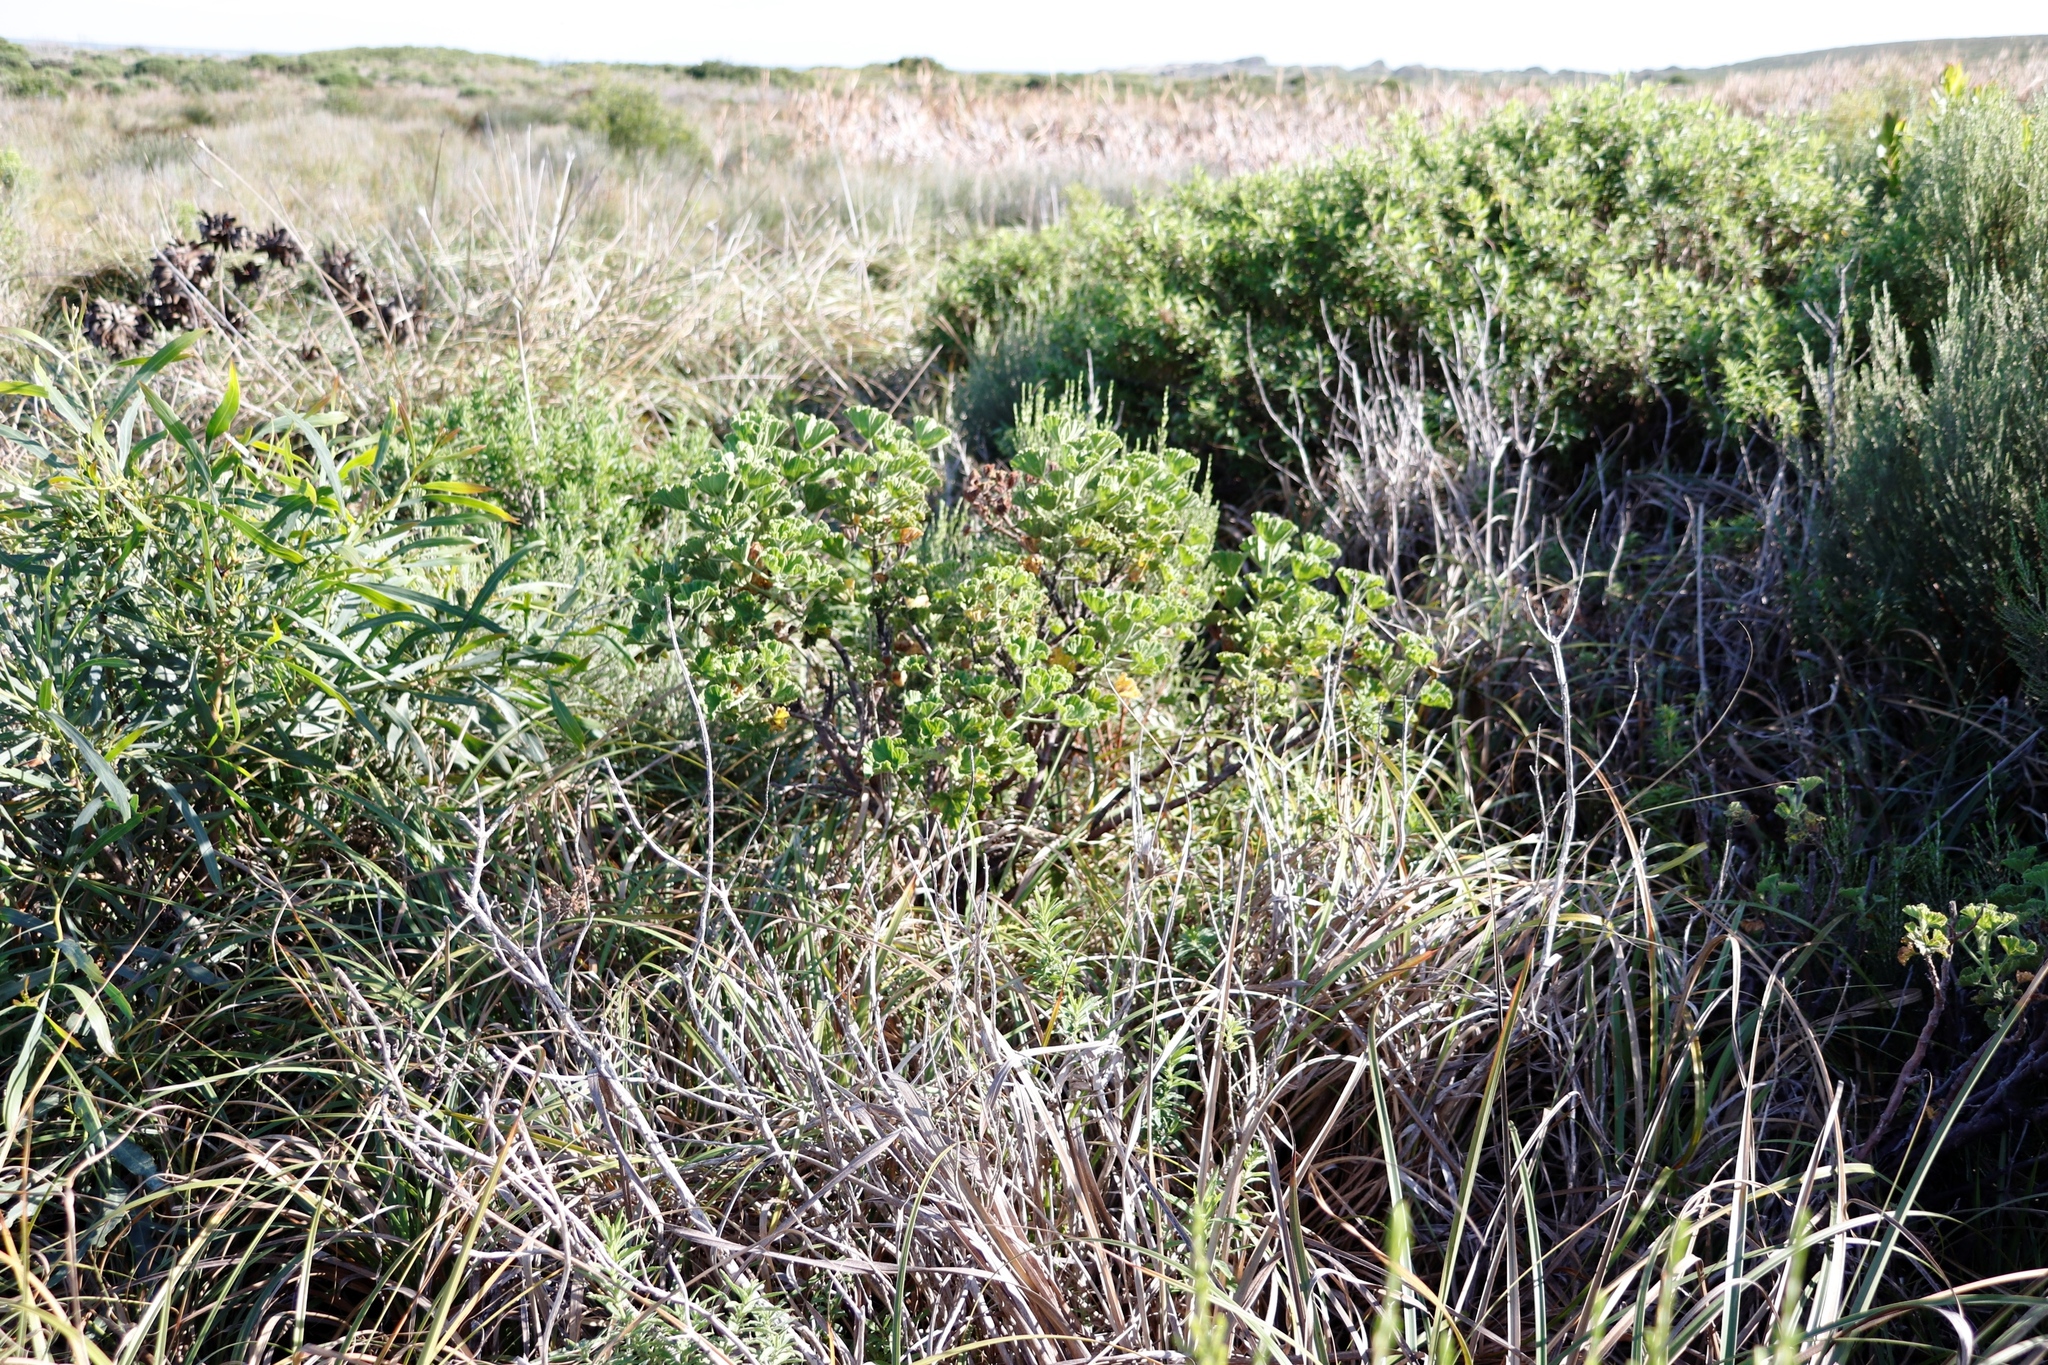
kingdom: Plantae
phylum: Tracheophyta
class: Magnoliopsida
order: Geraniales
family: Geraniaceae
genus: Pelargonium
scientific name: Pelargonium cucullatum
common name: Tree pelargonium
